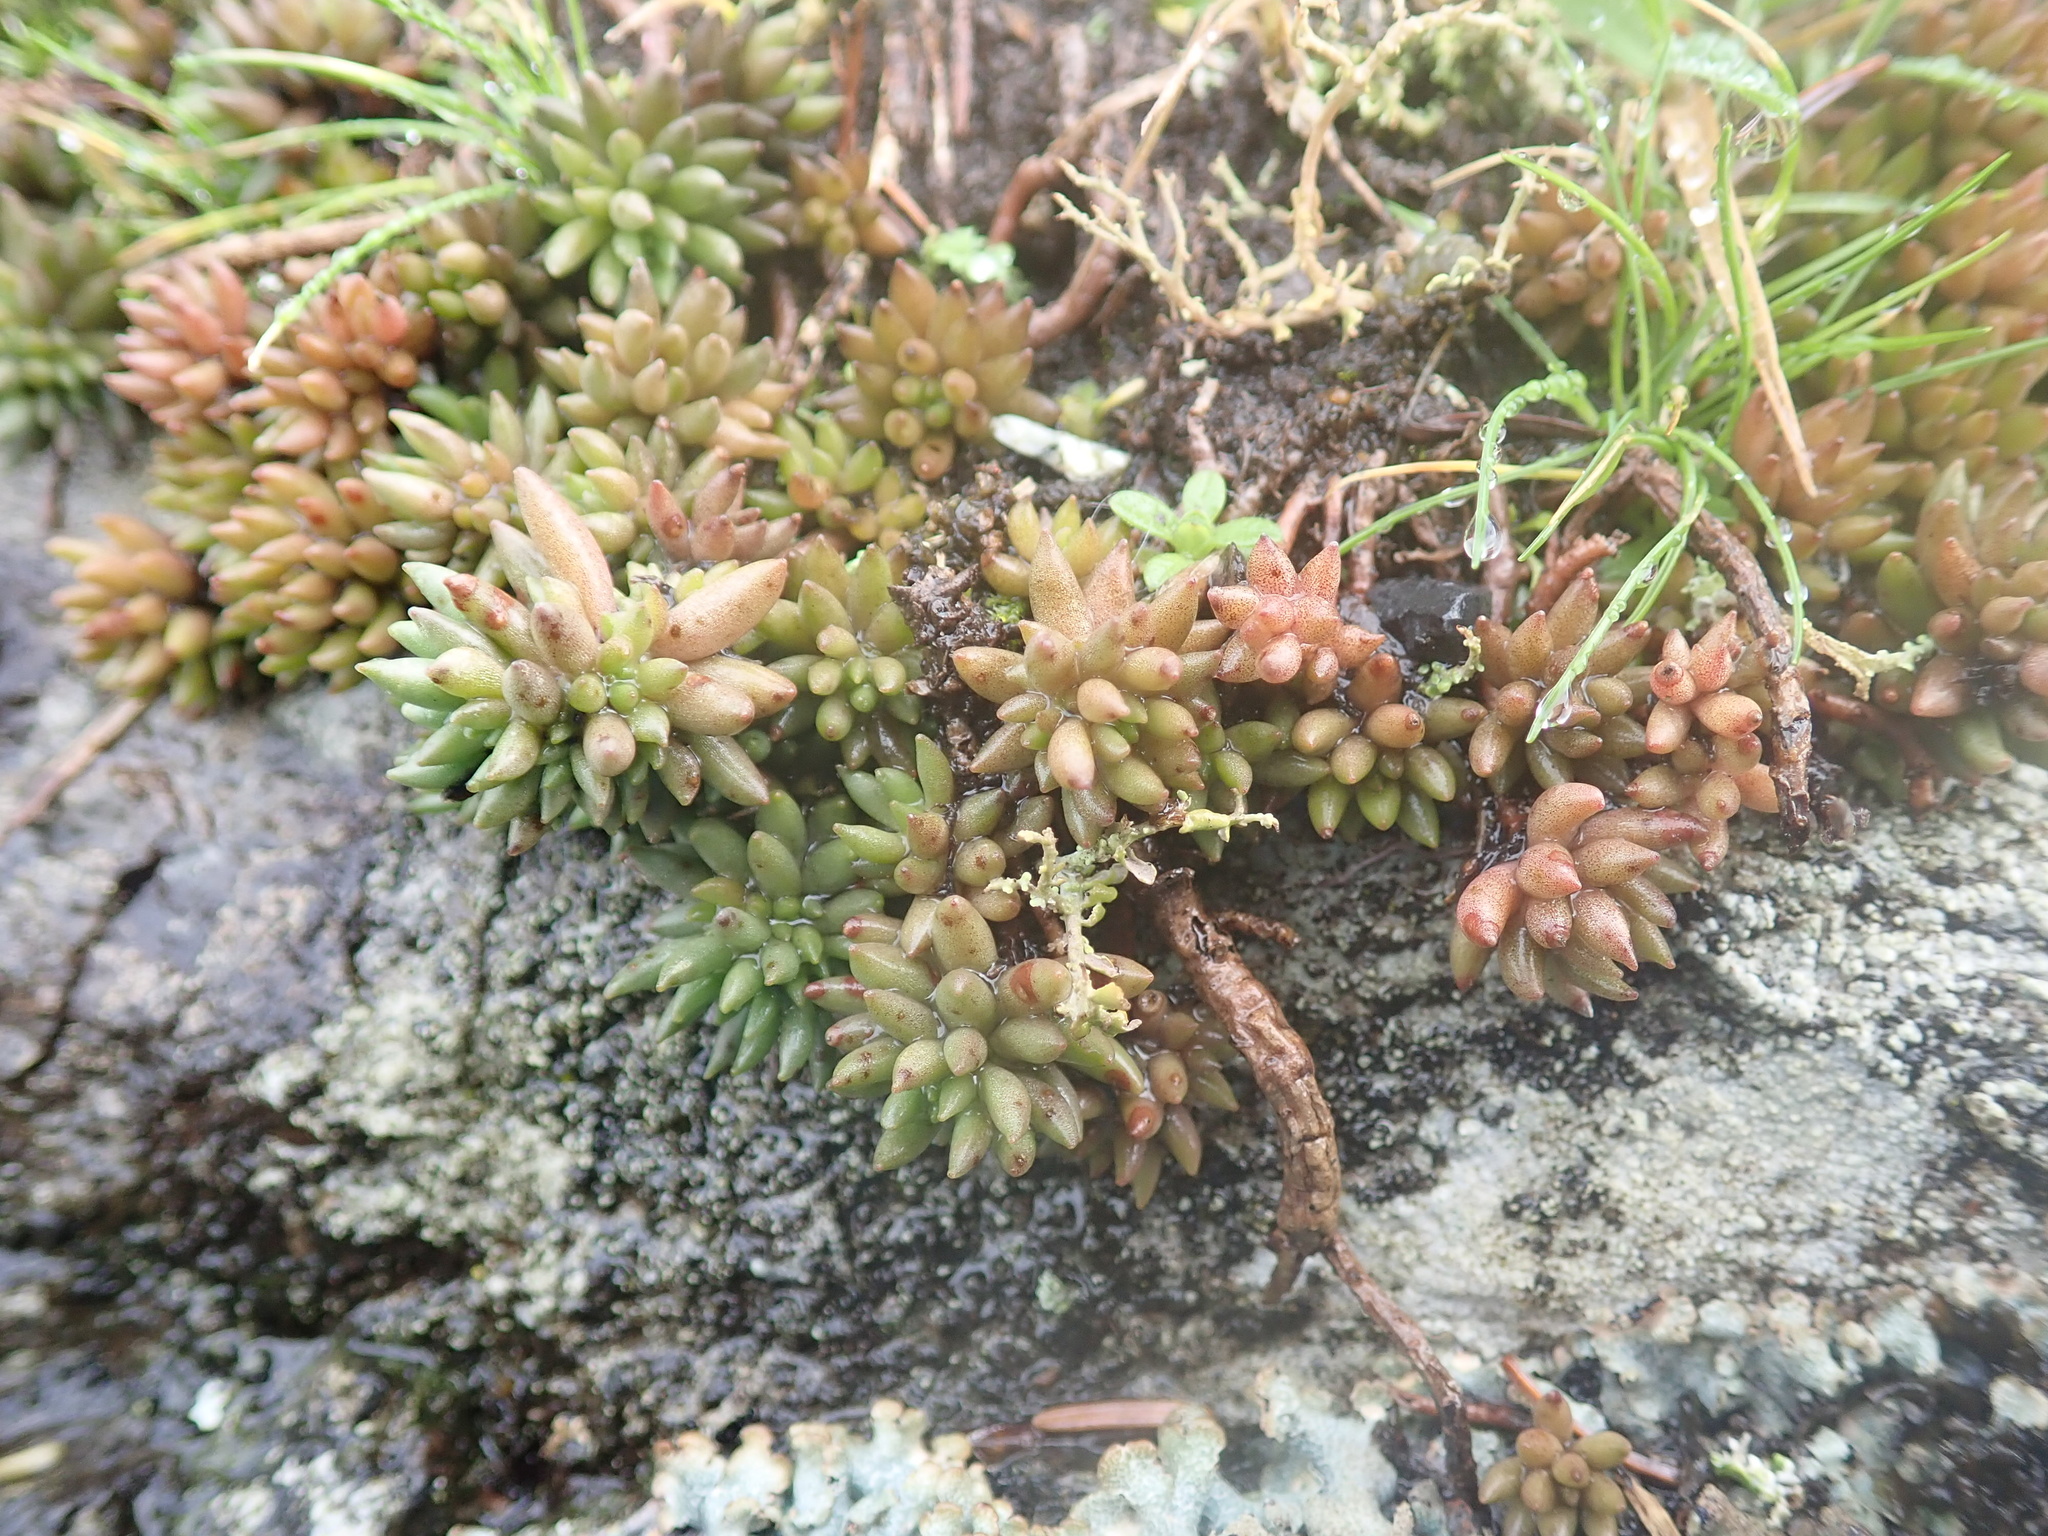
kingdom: Plantae
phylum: Tracheophyta
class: Magnoliopsida
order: Saxifragales
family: Crassulaceae
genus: Sedum
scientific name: Sedum lanceolatum
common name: Common stonecrop
